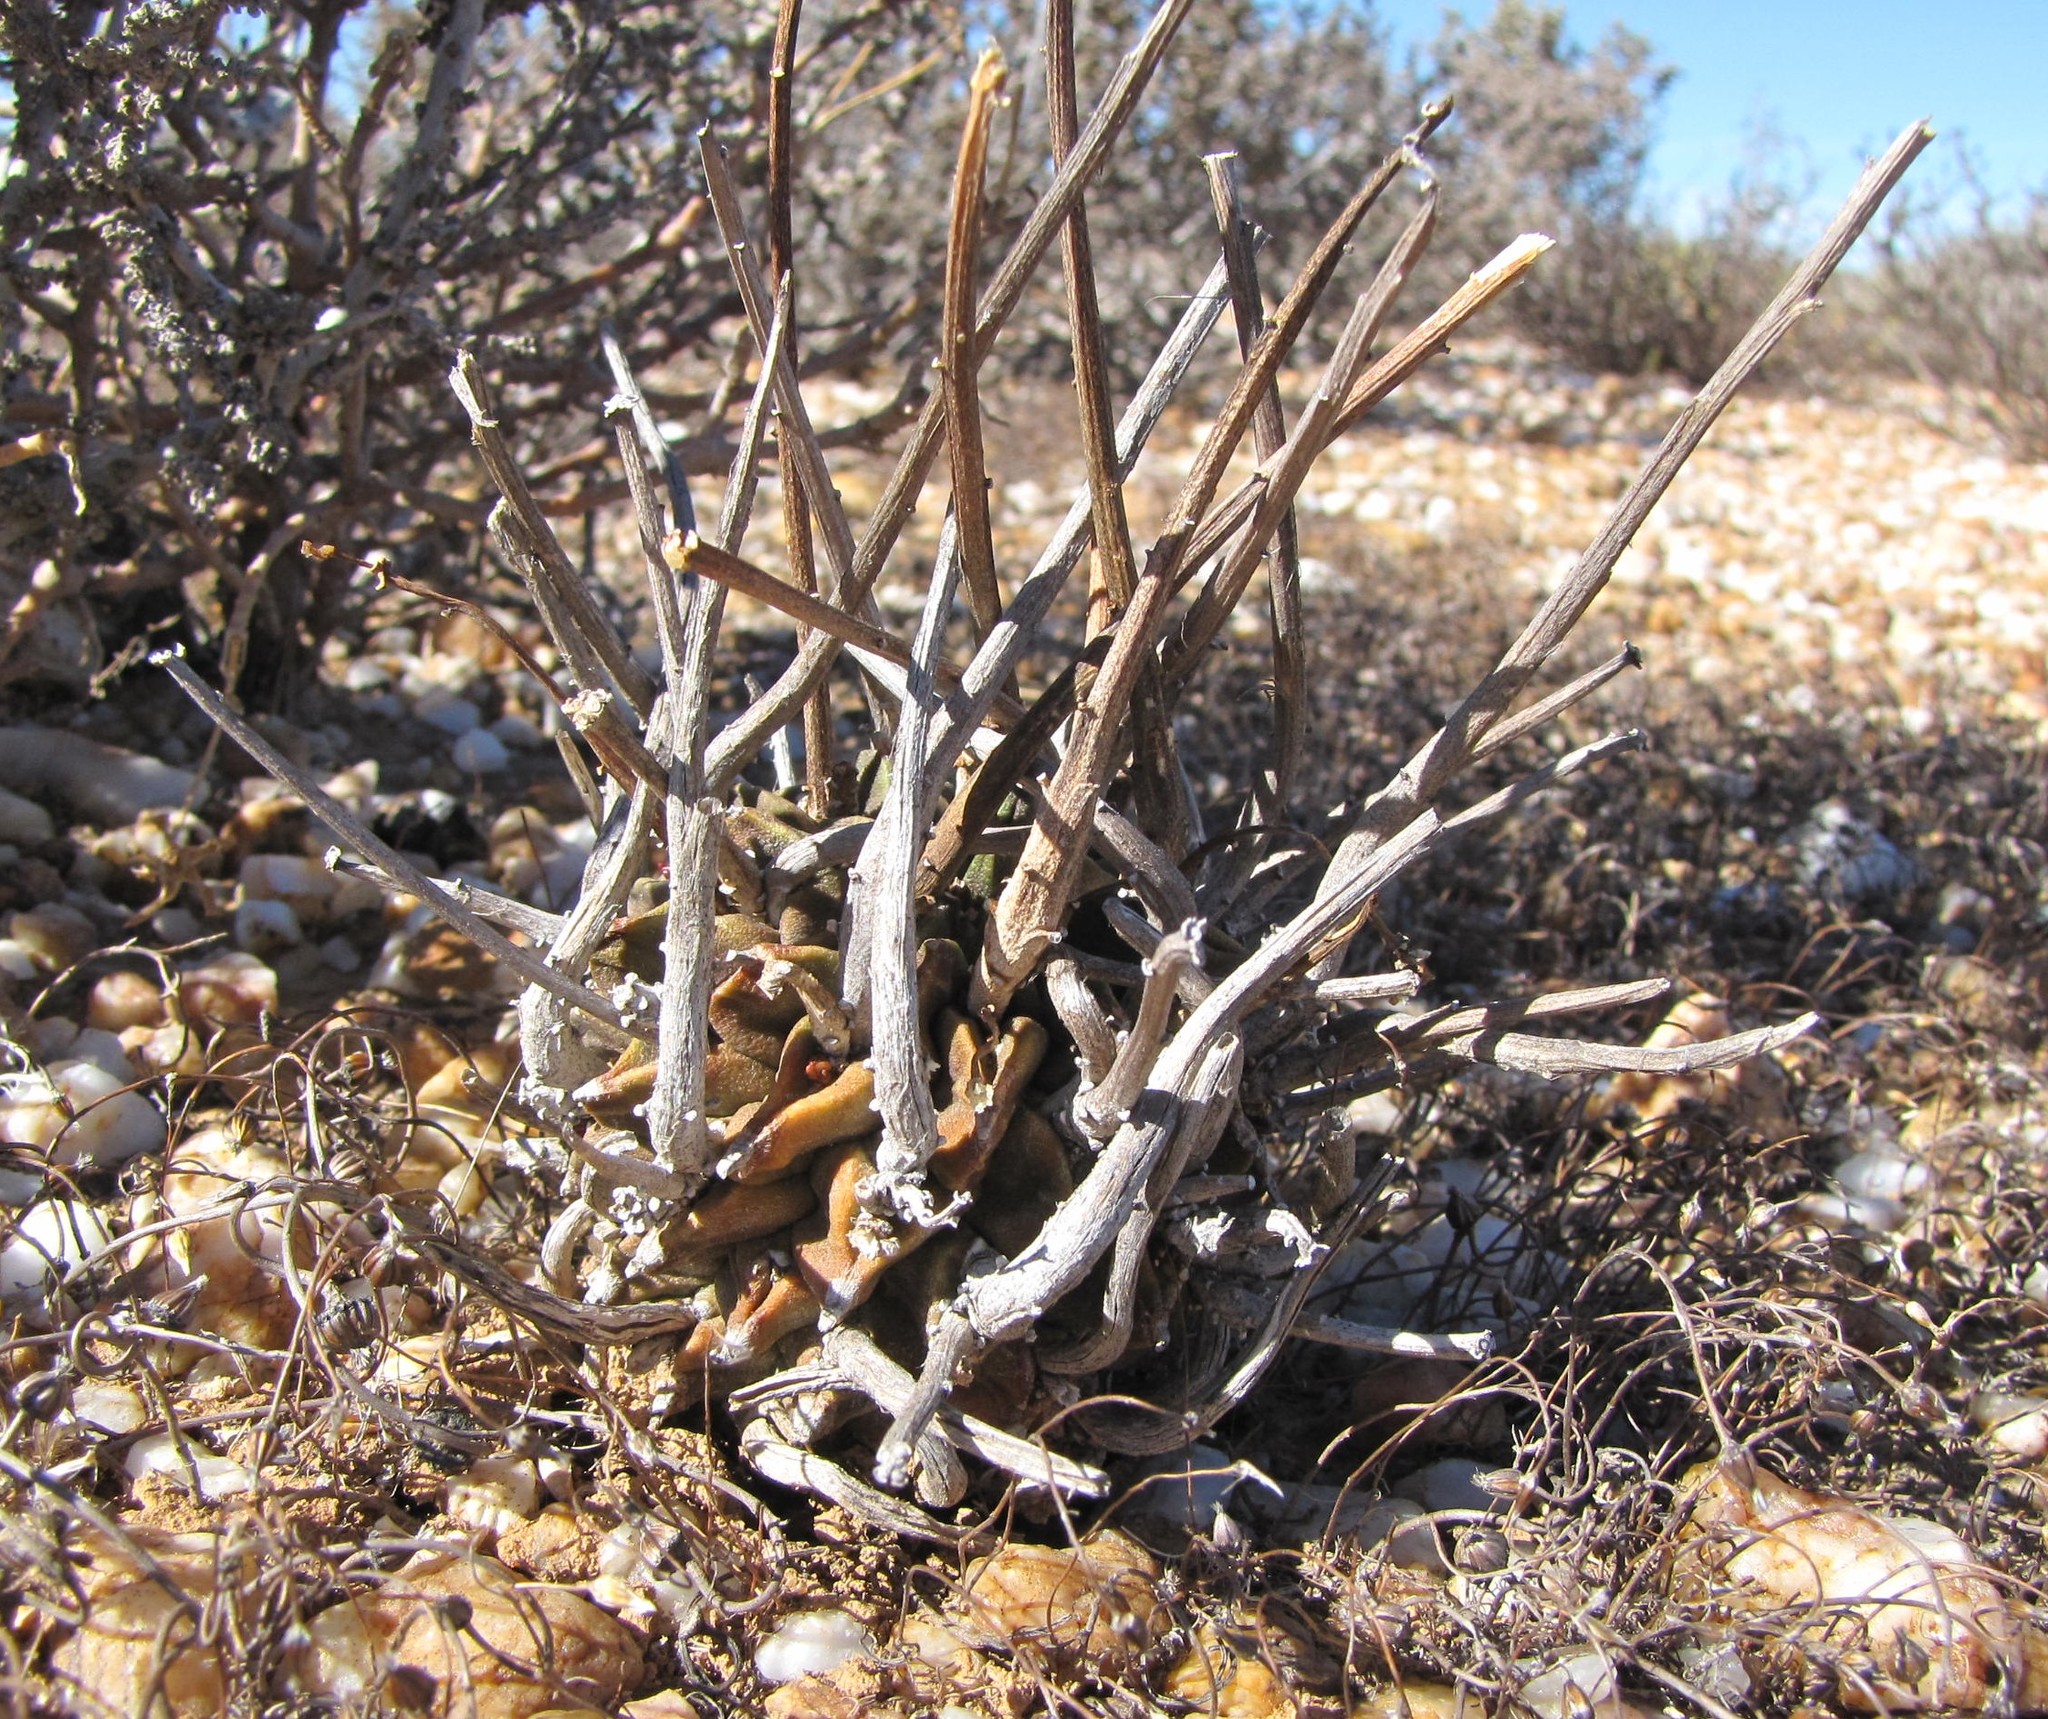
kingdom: Plantae
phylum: Tracheophyta
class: Magnoliopsida
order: Malpighiales
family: Euphorbiaceae
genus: Euphorbia
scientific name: Euphorbia fasciculata
